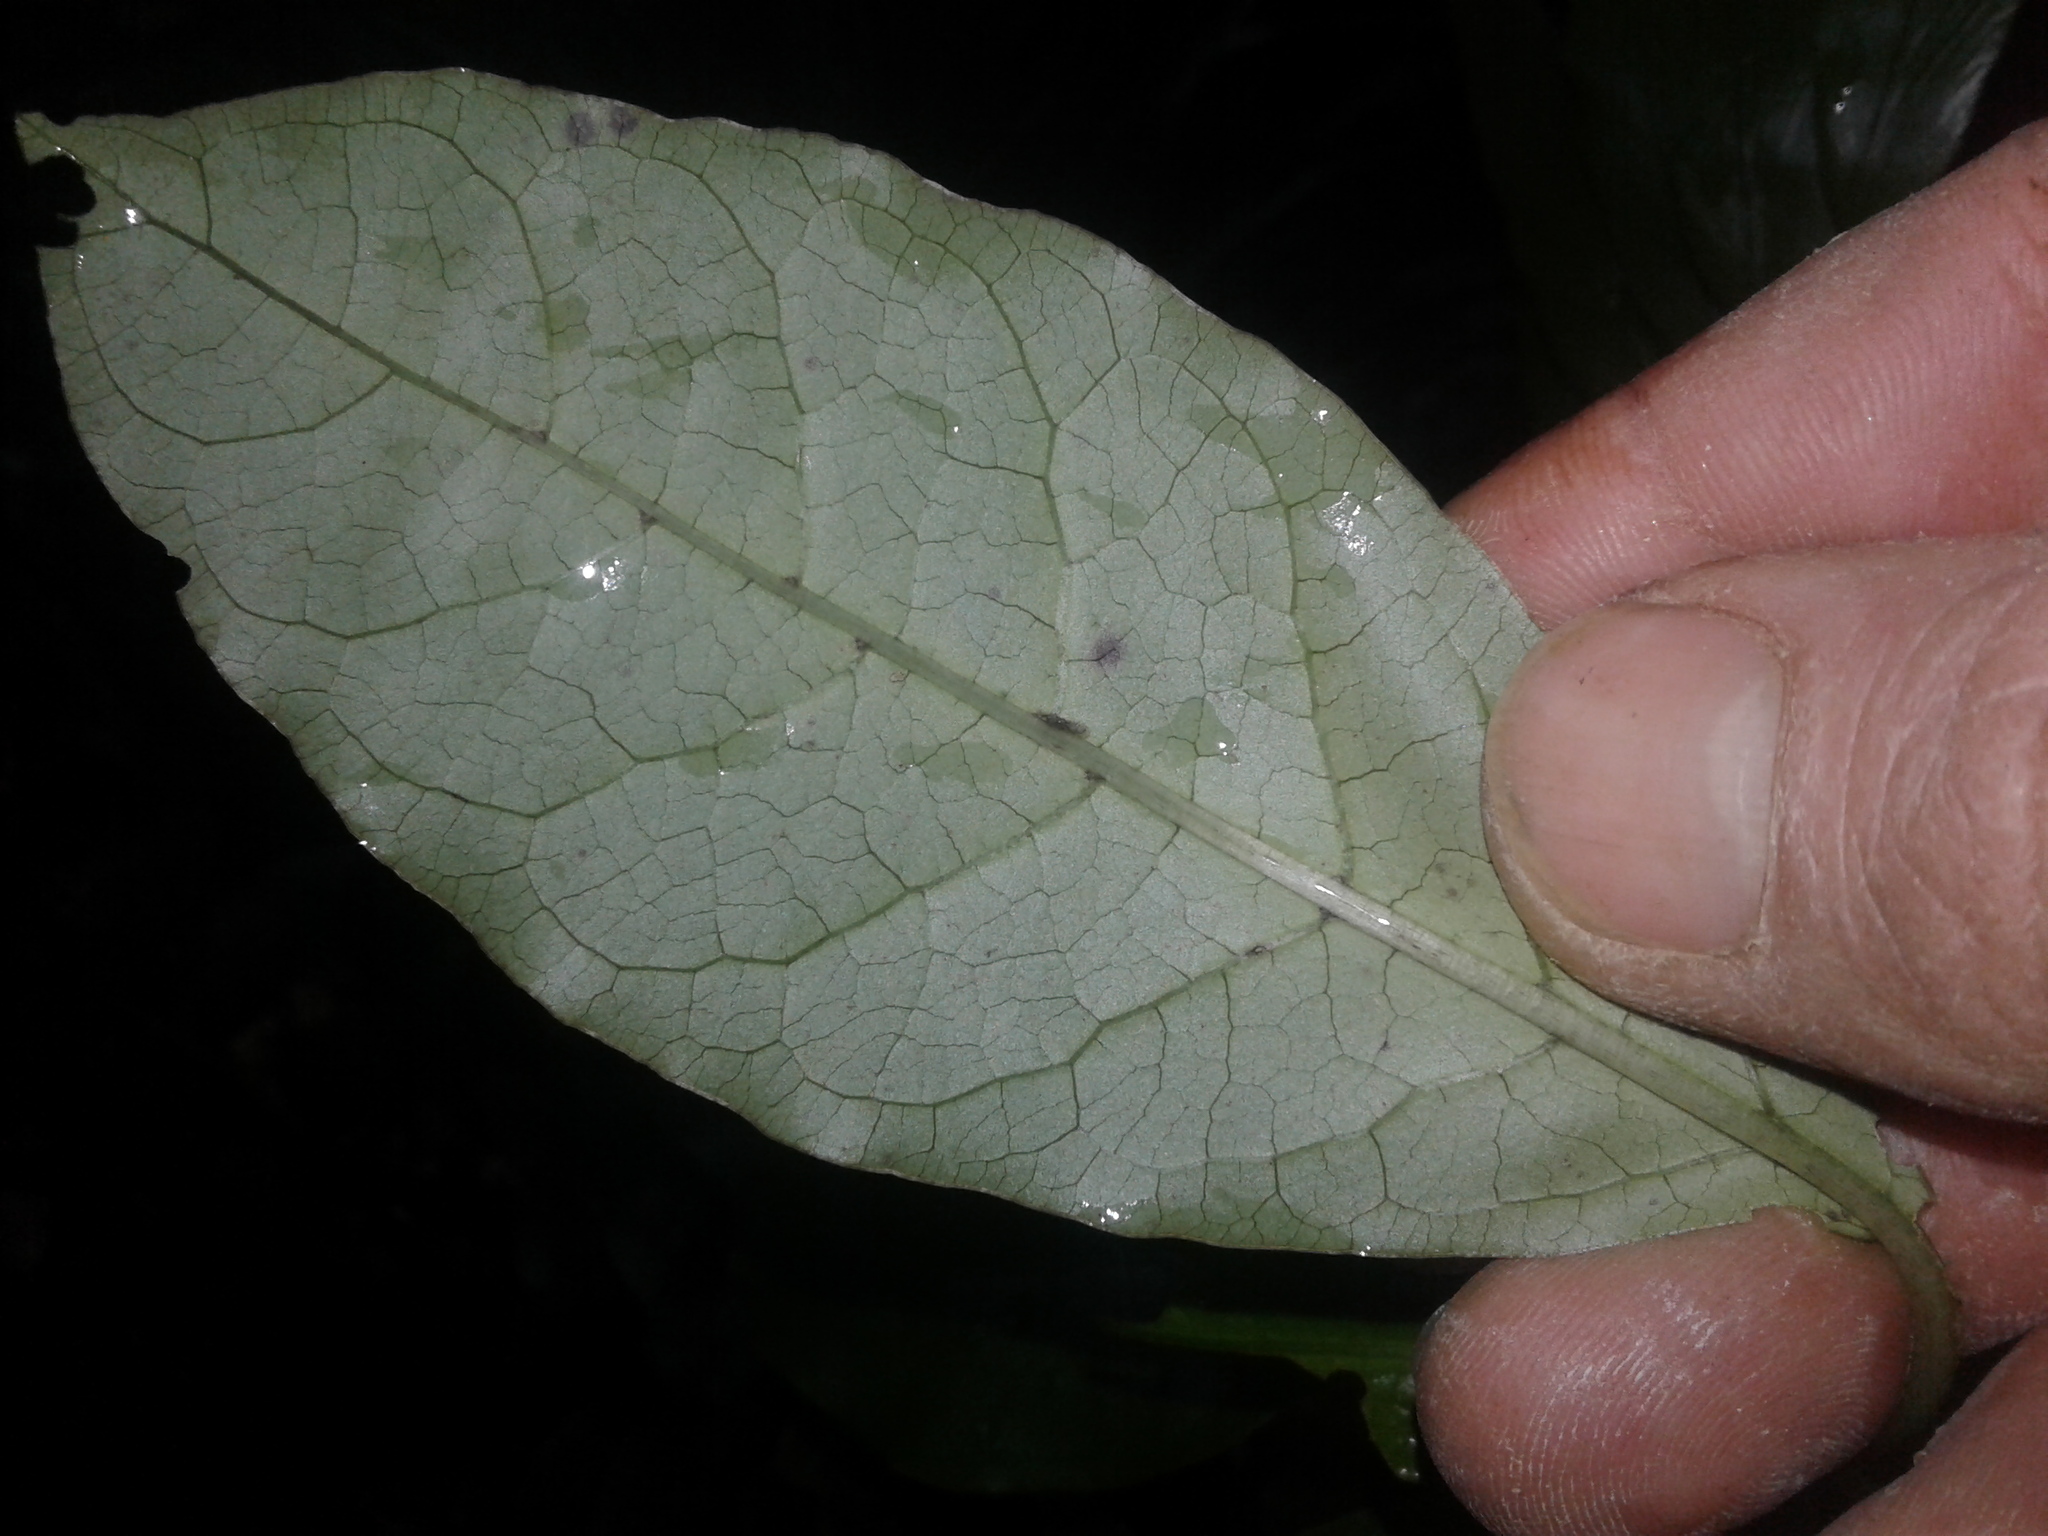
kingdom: Plantae
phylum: Tracheophyta
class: Magnoliopsida
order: Gentianales
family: Rubiaceae
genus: Coprosma
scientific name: Coprosma autumnalis
